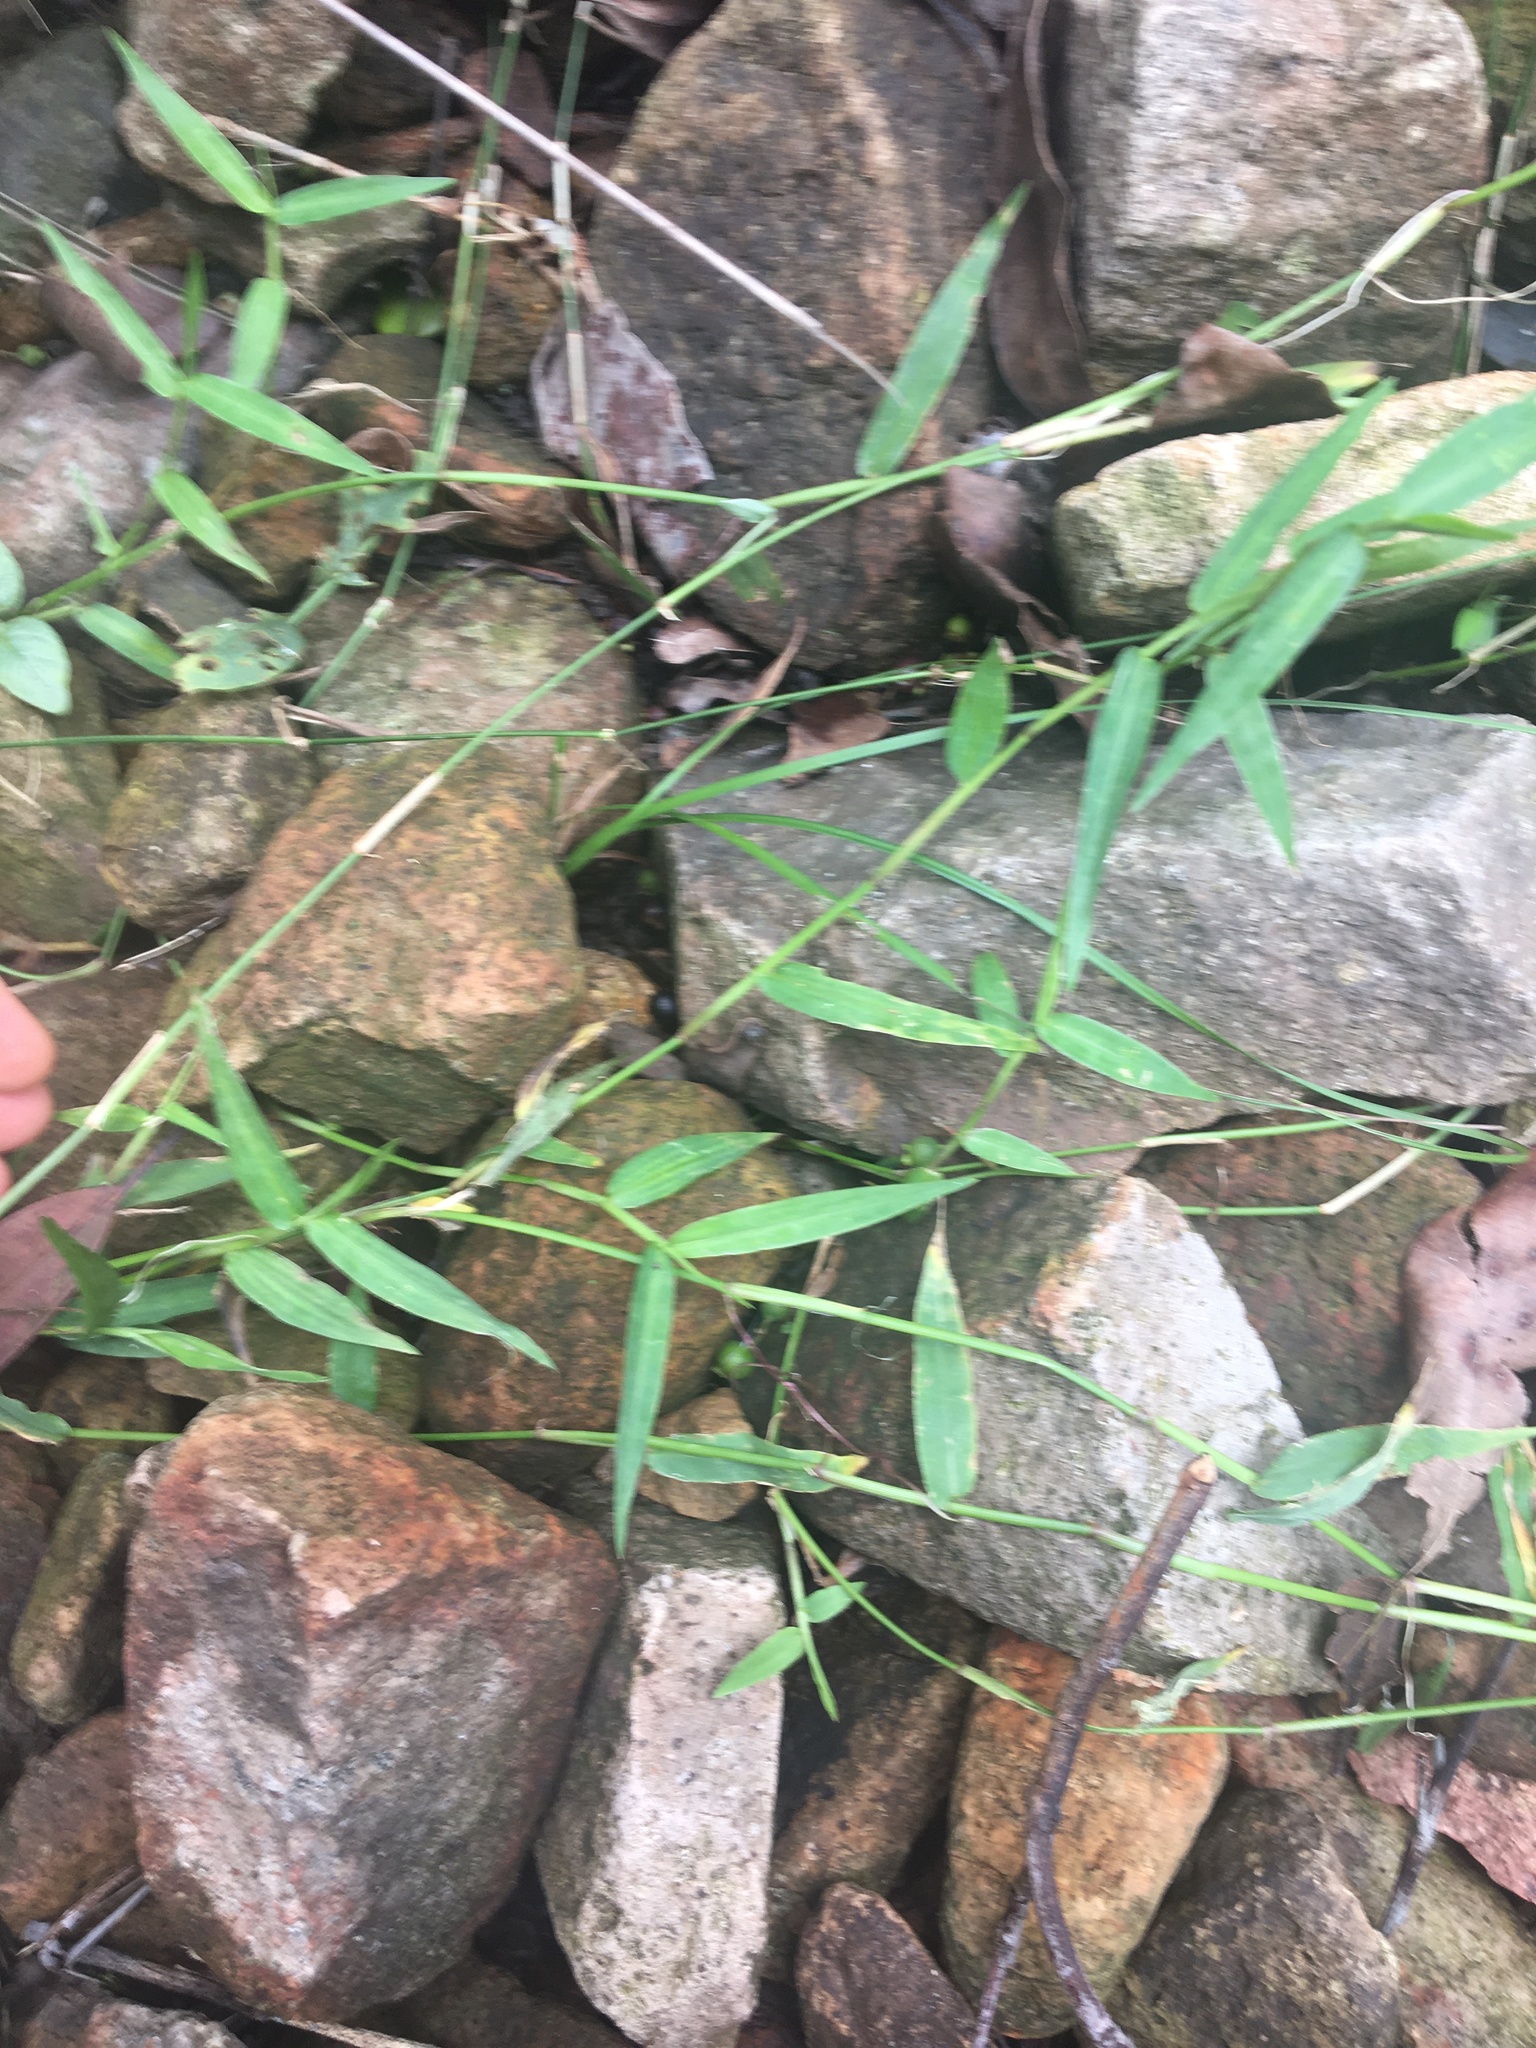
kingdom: Plantae
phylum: Tracheophyta
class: Liliopsida
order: Poales
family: Poaceae
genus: Ottochloa
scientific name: Ottochloa gracillima
